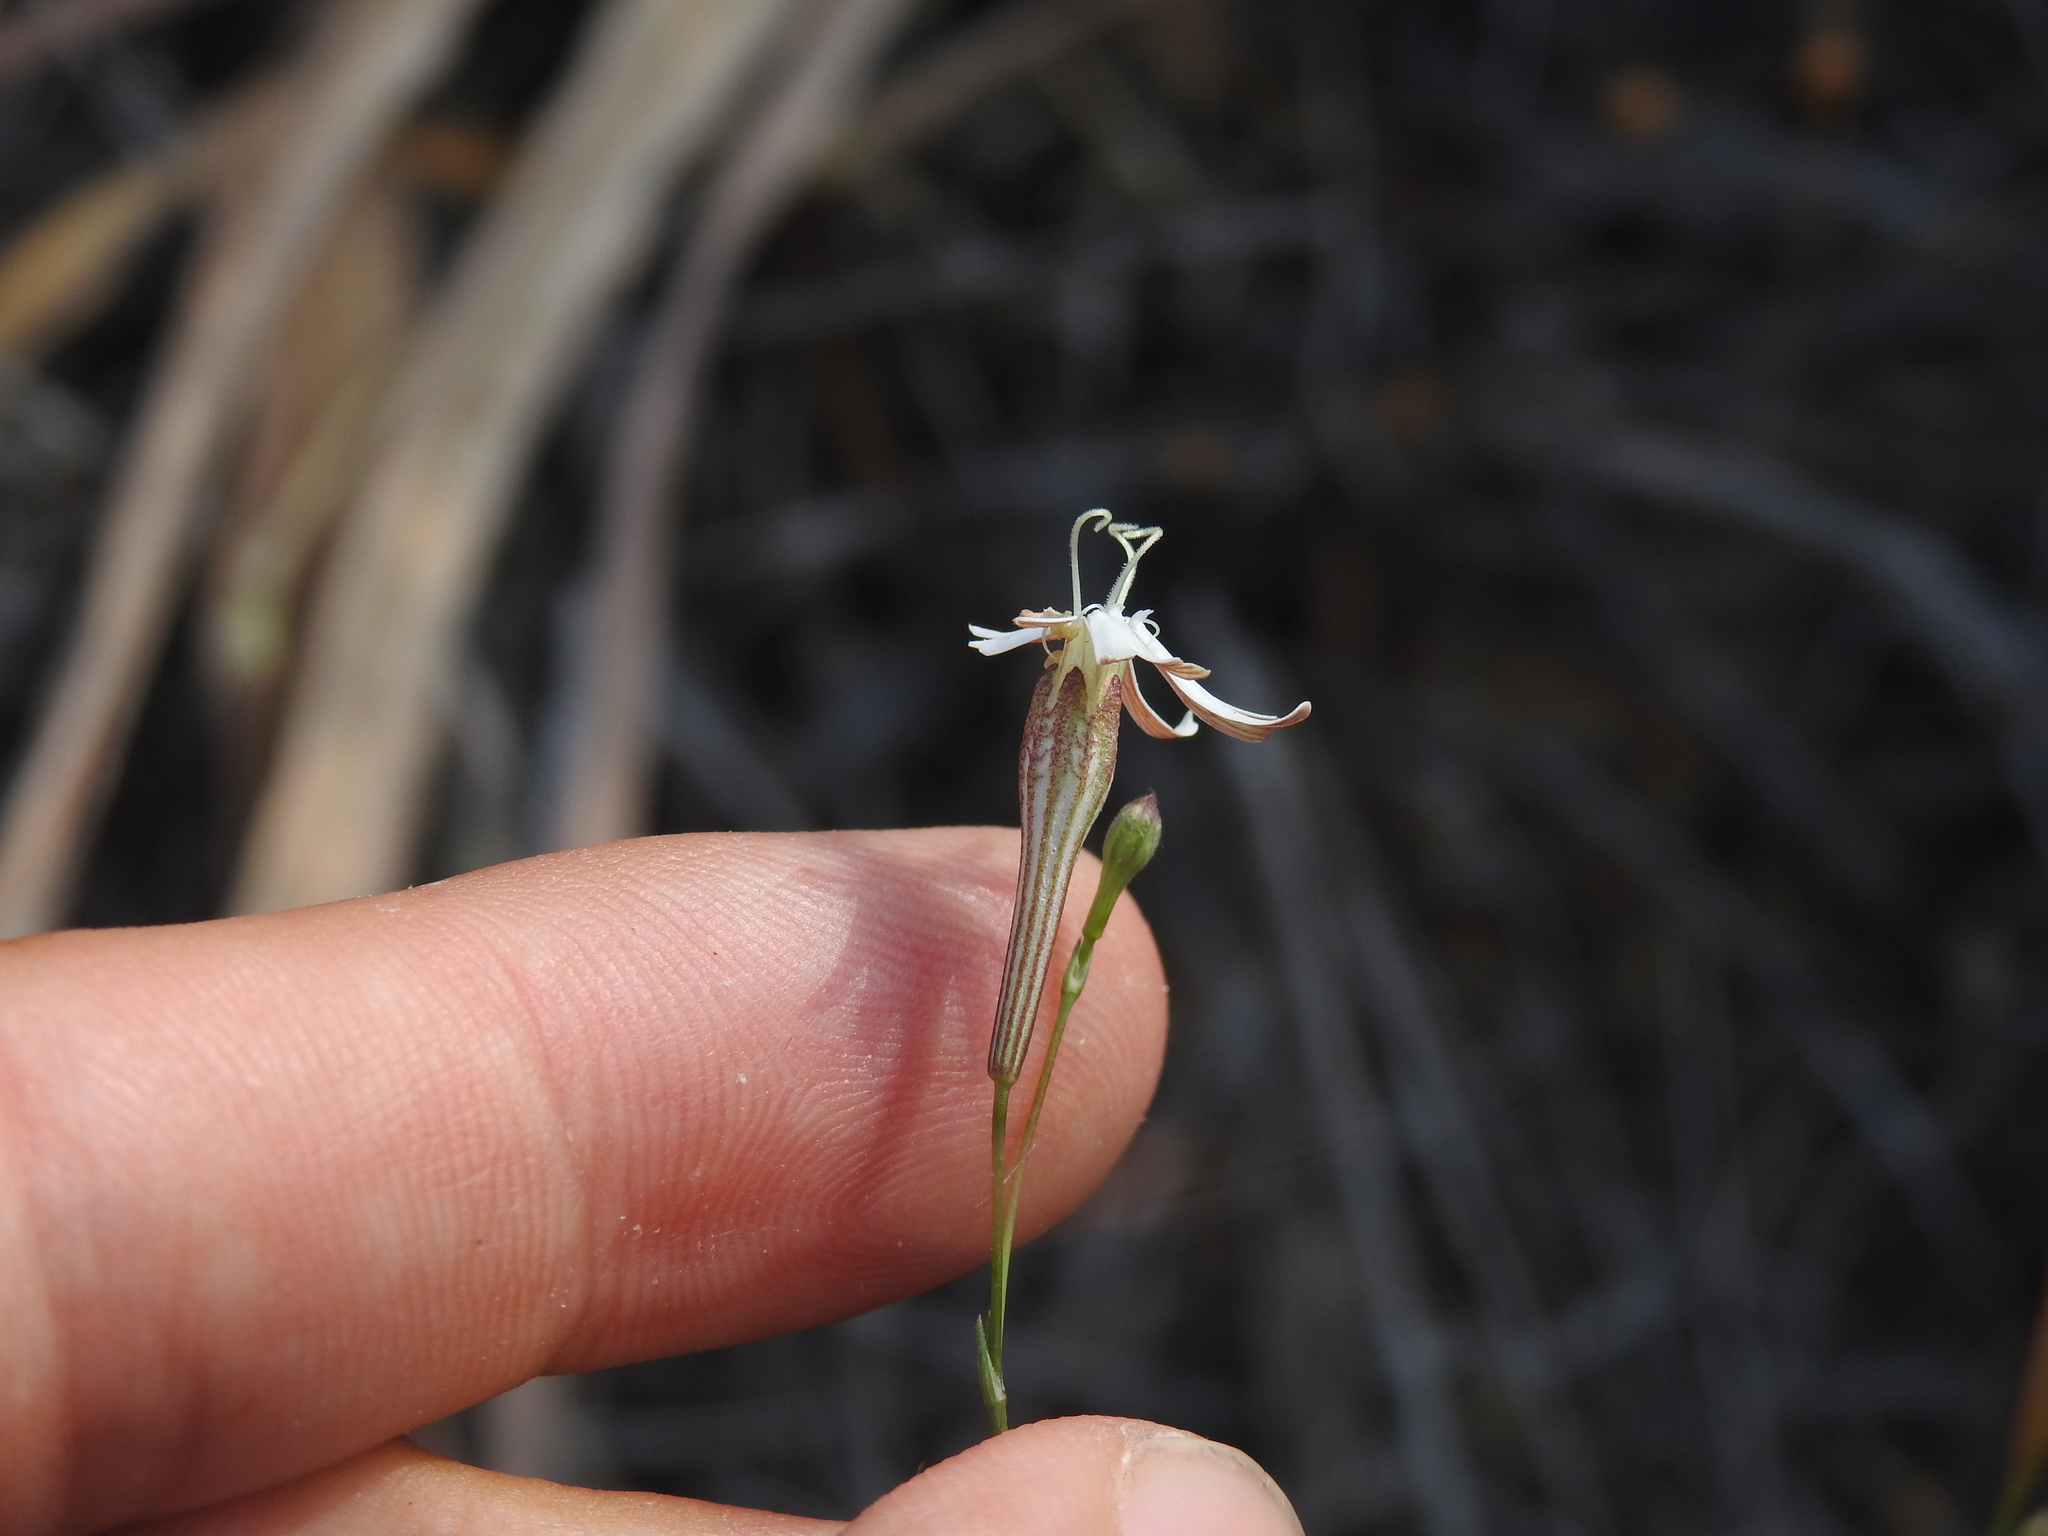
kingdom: Plantae
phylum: Tracheophyta
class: Magnoliopsida
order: Caryophyllales
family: Caryophyllaceae
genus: Silene
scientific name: Silene portensis
